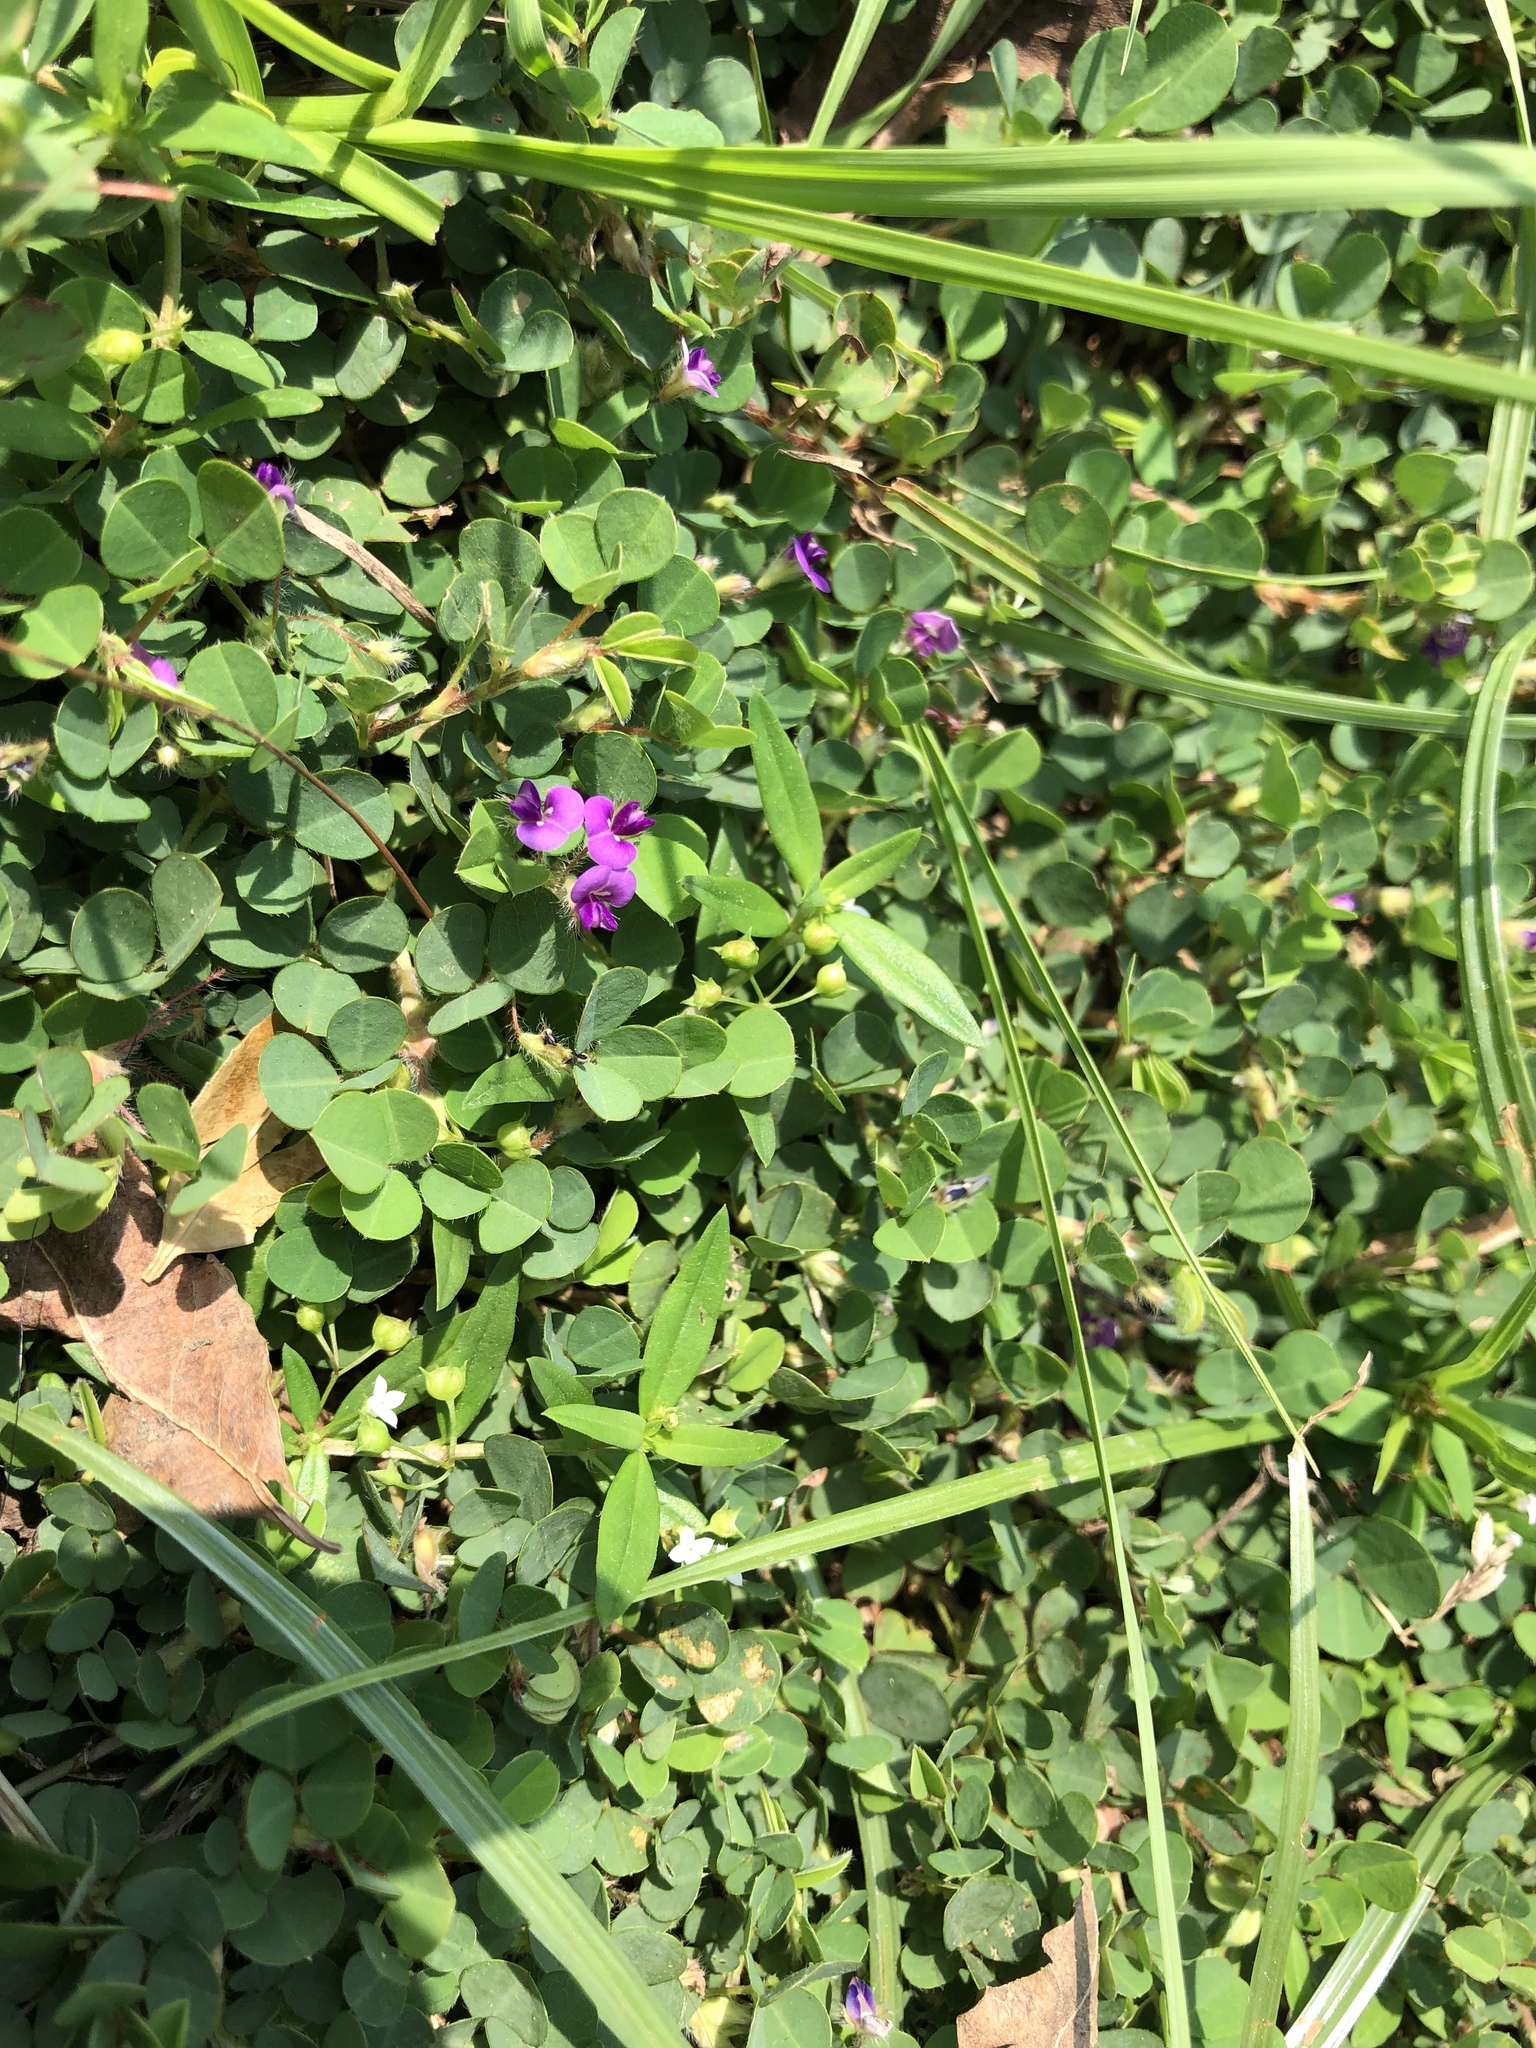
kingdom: Plantae
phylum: Tracheophyta
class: Magnoliopsida
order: Fabales
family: Fabaceae
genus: Grona
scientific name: Grona triflora
